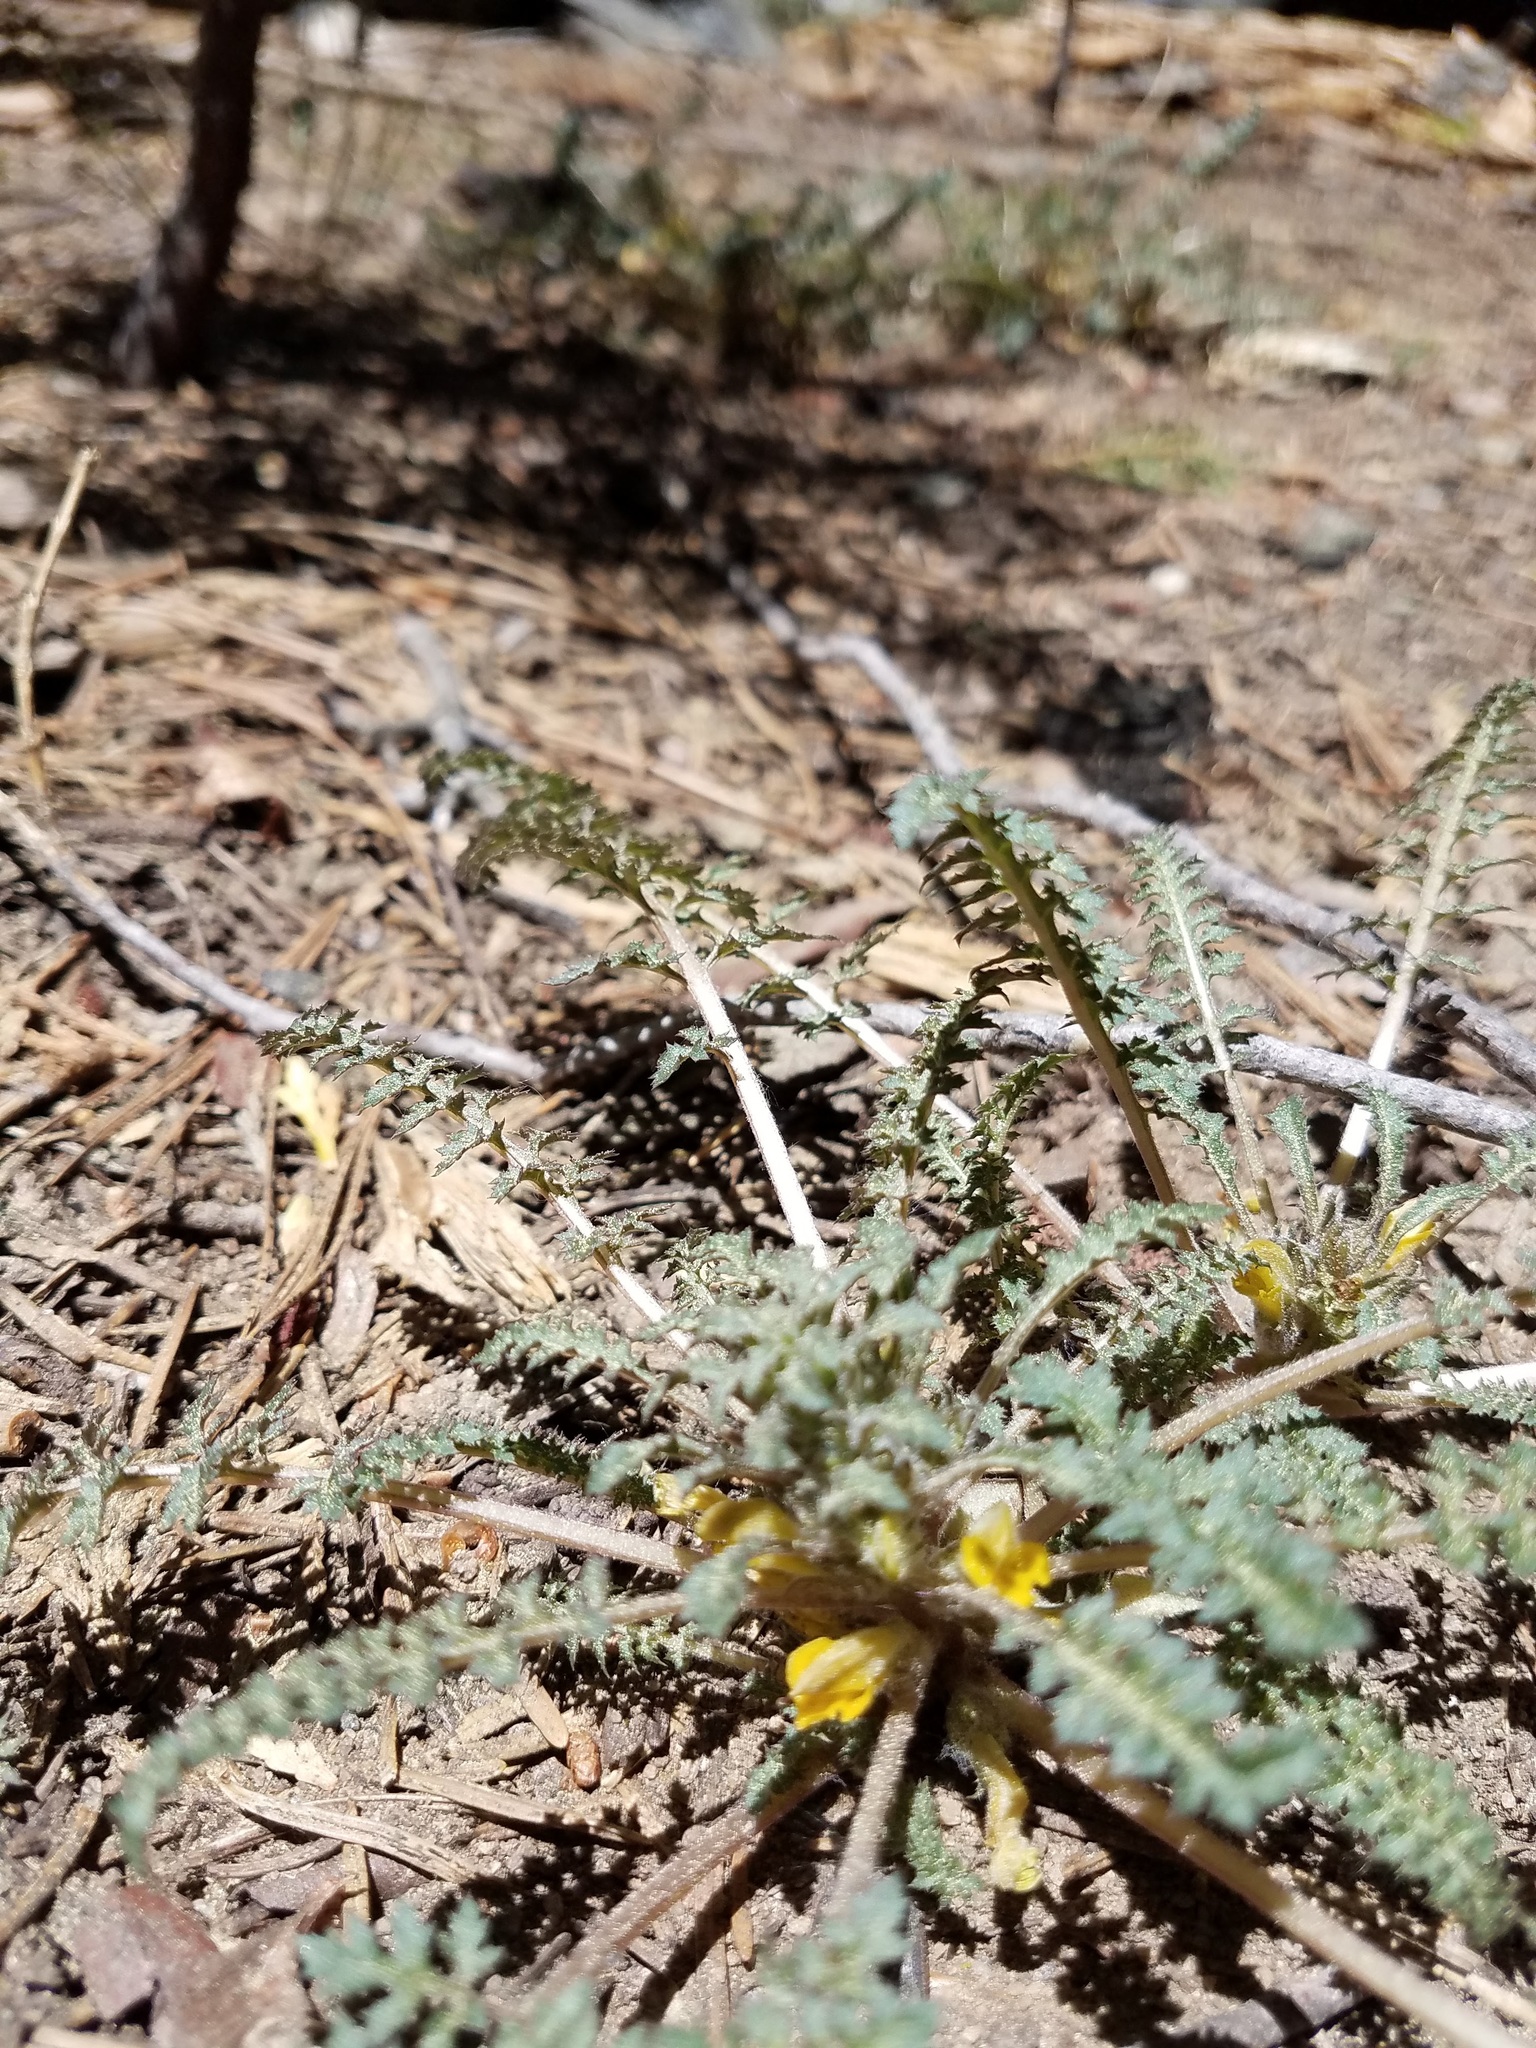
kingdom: Plantae
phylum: Tracheophyta
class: Magnoliopsida
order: Lamiales
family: Orobanchaceae
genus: Pedicularis
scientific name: Pedicularis semibarbata
